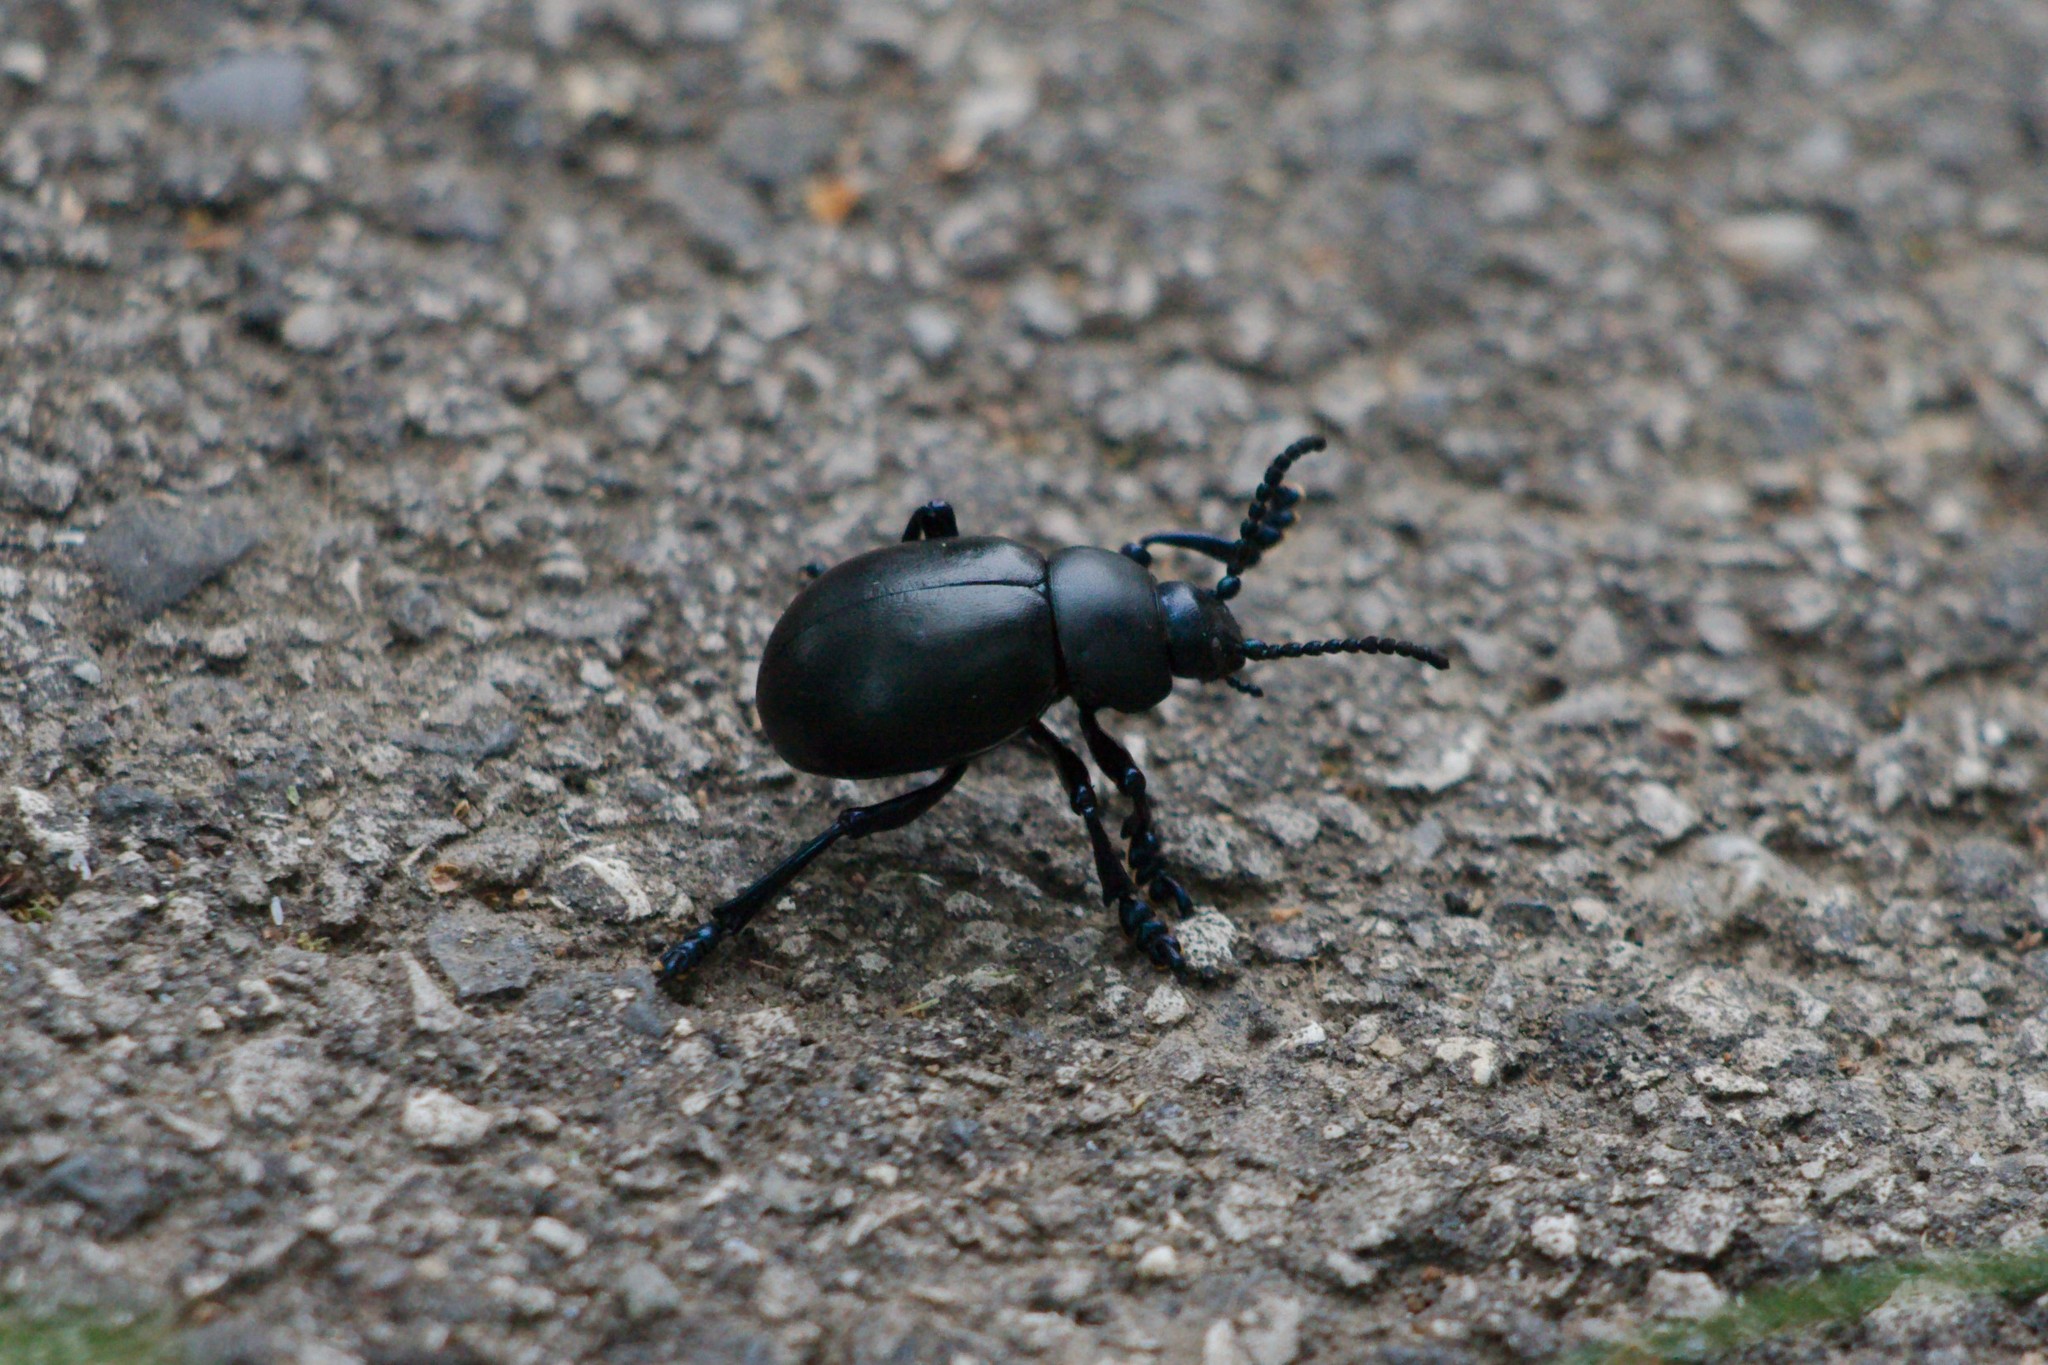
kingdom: Animalia
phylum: Arthropoda
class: Insecta
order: Coleoptera
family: Chrysomelidae
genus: Timarcha
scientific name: Timarcha tenebricosa
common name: Bloody-nosed beetle
